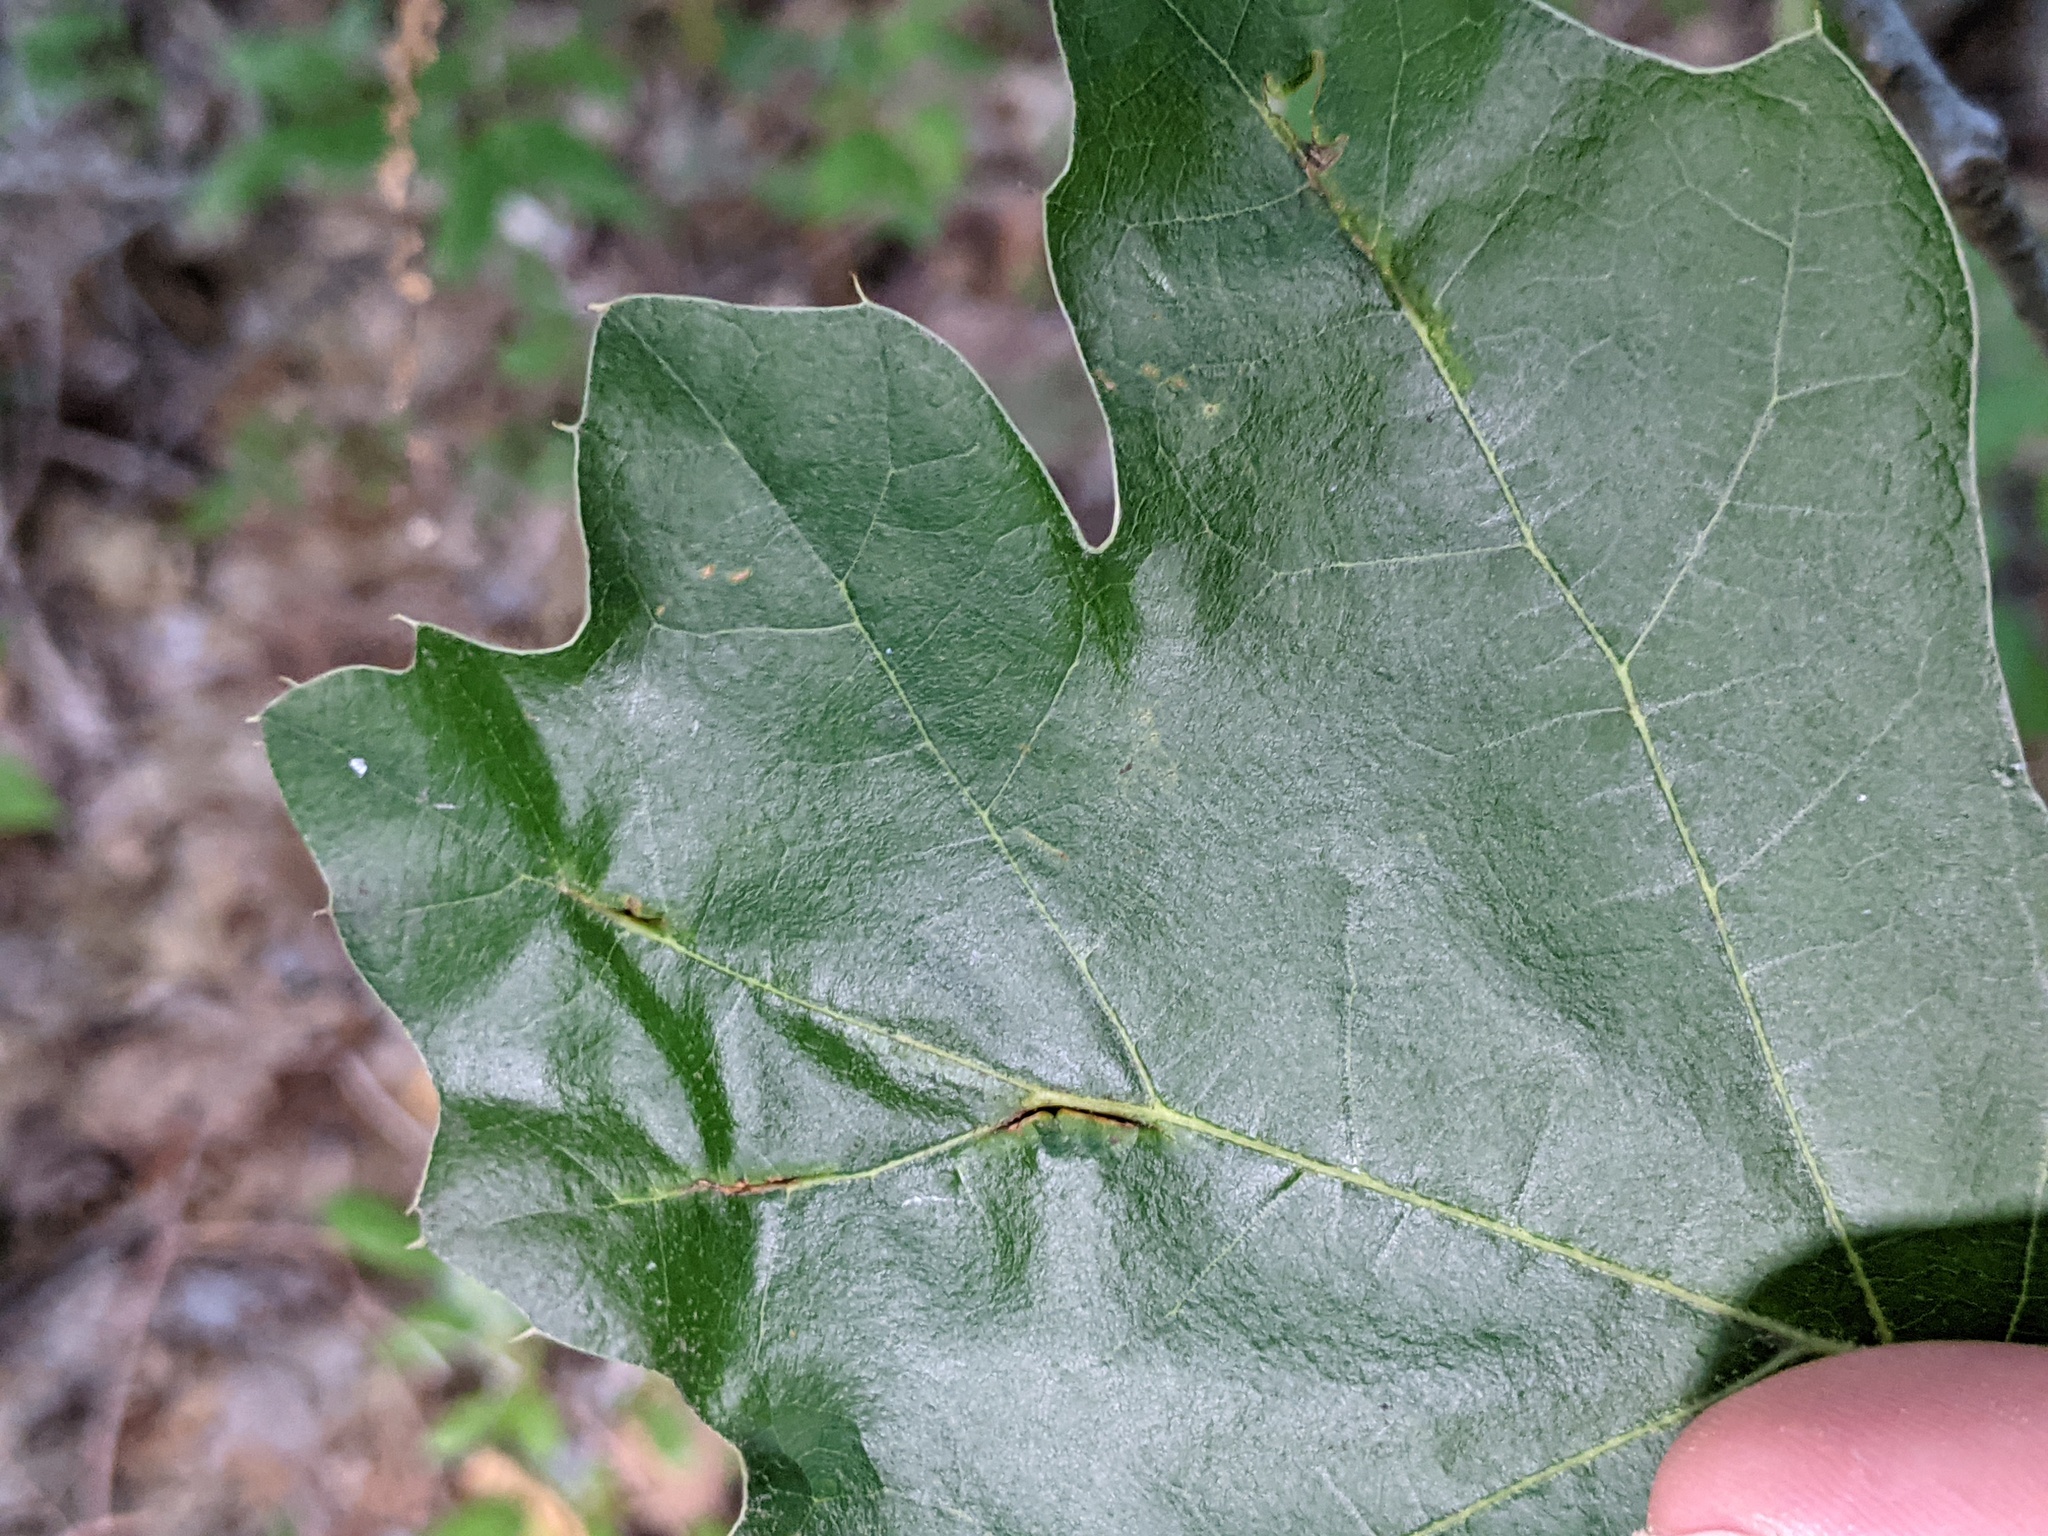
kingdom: Animalia
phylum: Arthropoda
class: Insecta
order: Diptera
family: Cecidomyiidae
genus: Macrodiplosis
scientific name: Macrodiplosis majalis
